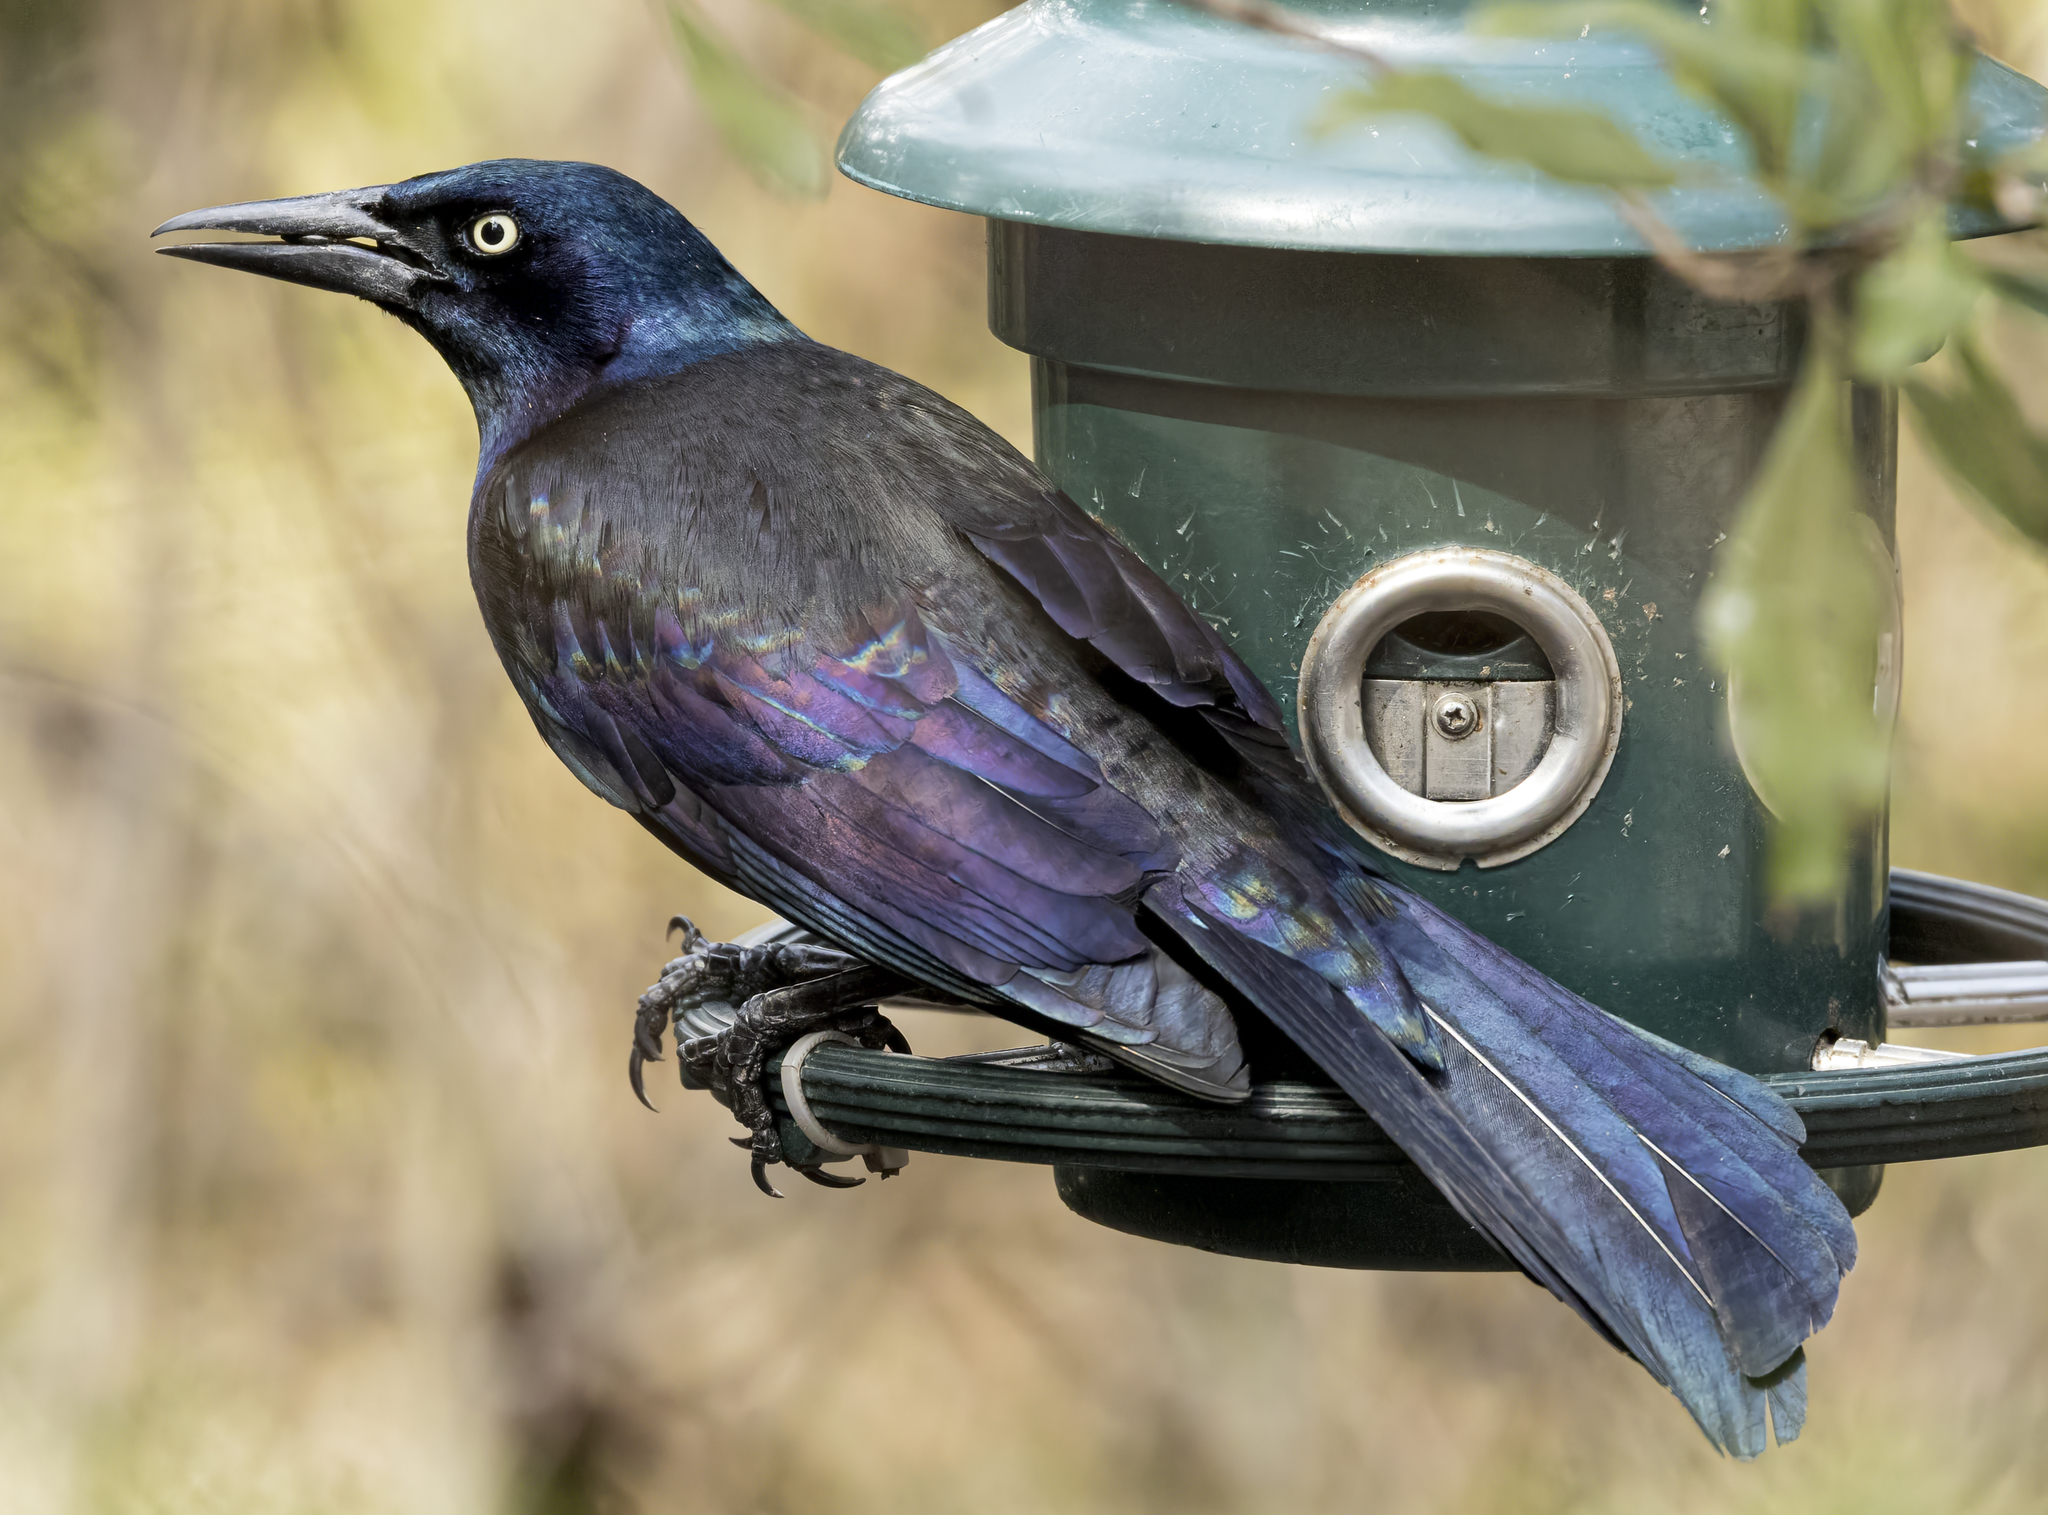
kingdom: Animalia
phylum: Chordata
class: Aves
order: Passeriformes
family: Icteridae
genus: Quiscalus
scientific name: Quiscalus quiscula
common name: Common grackle
